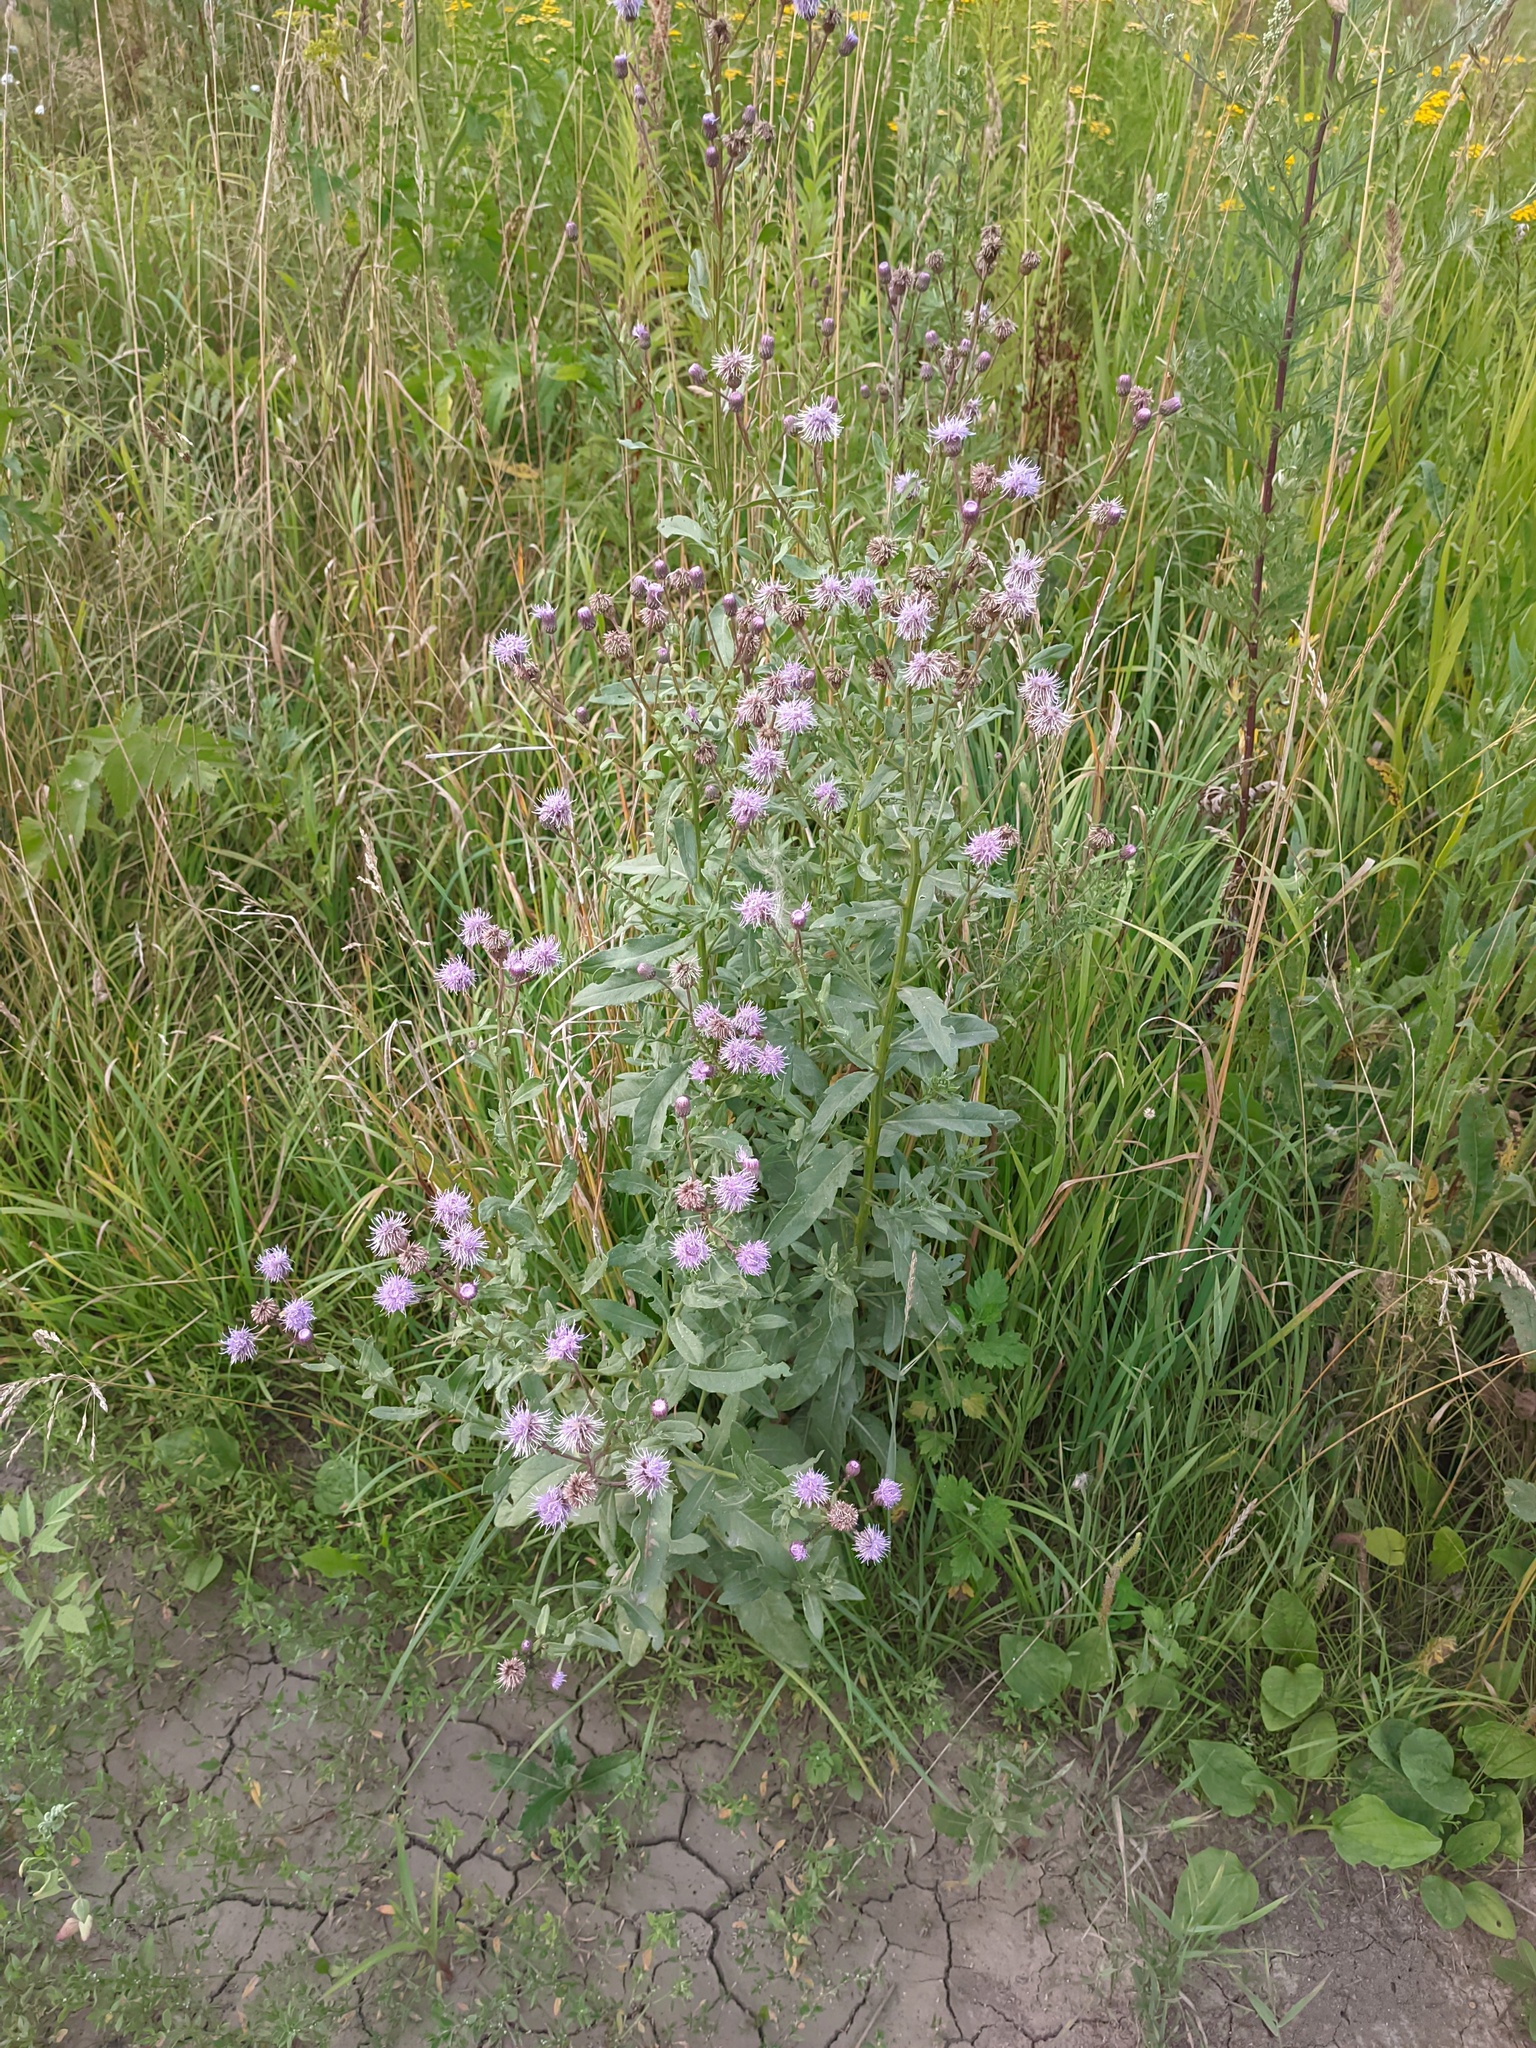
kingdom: Plantae
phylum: Tracheophyta
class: Magnoliopsida
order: Asterales
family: Asteraceae
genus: Cirsium
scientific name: Cirsium arvense
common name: Creeping thistle
